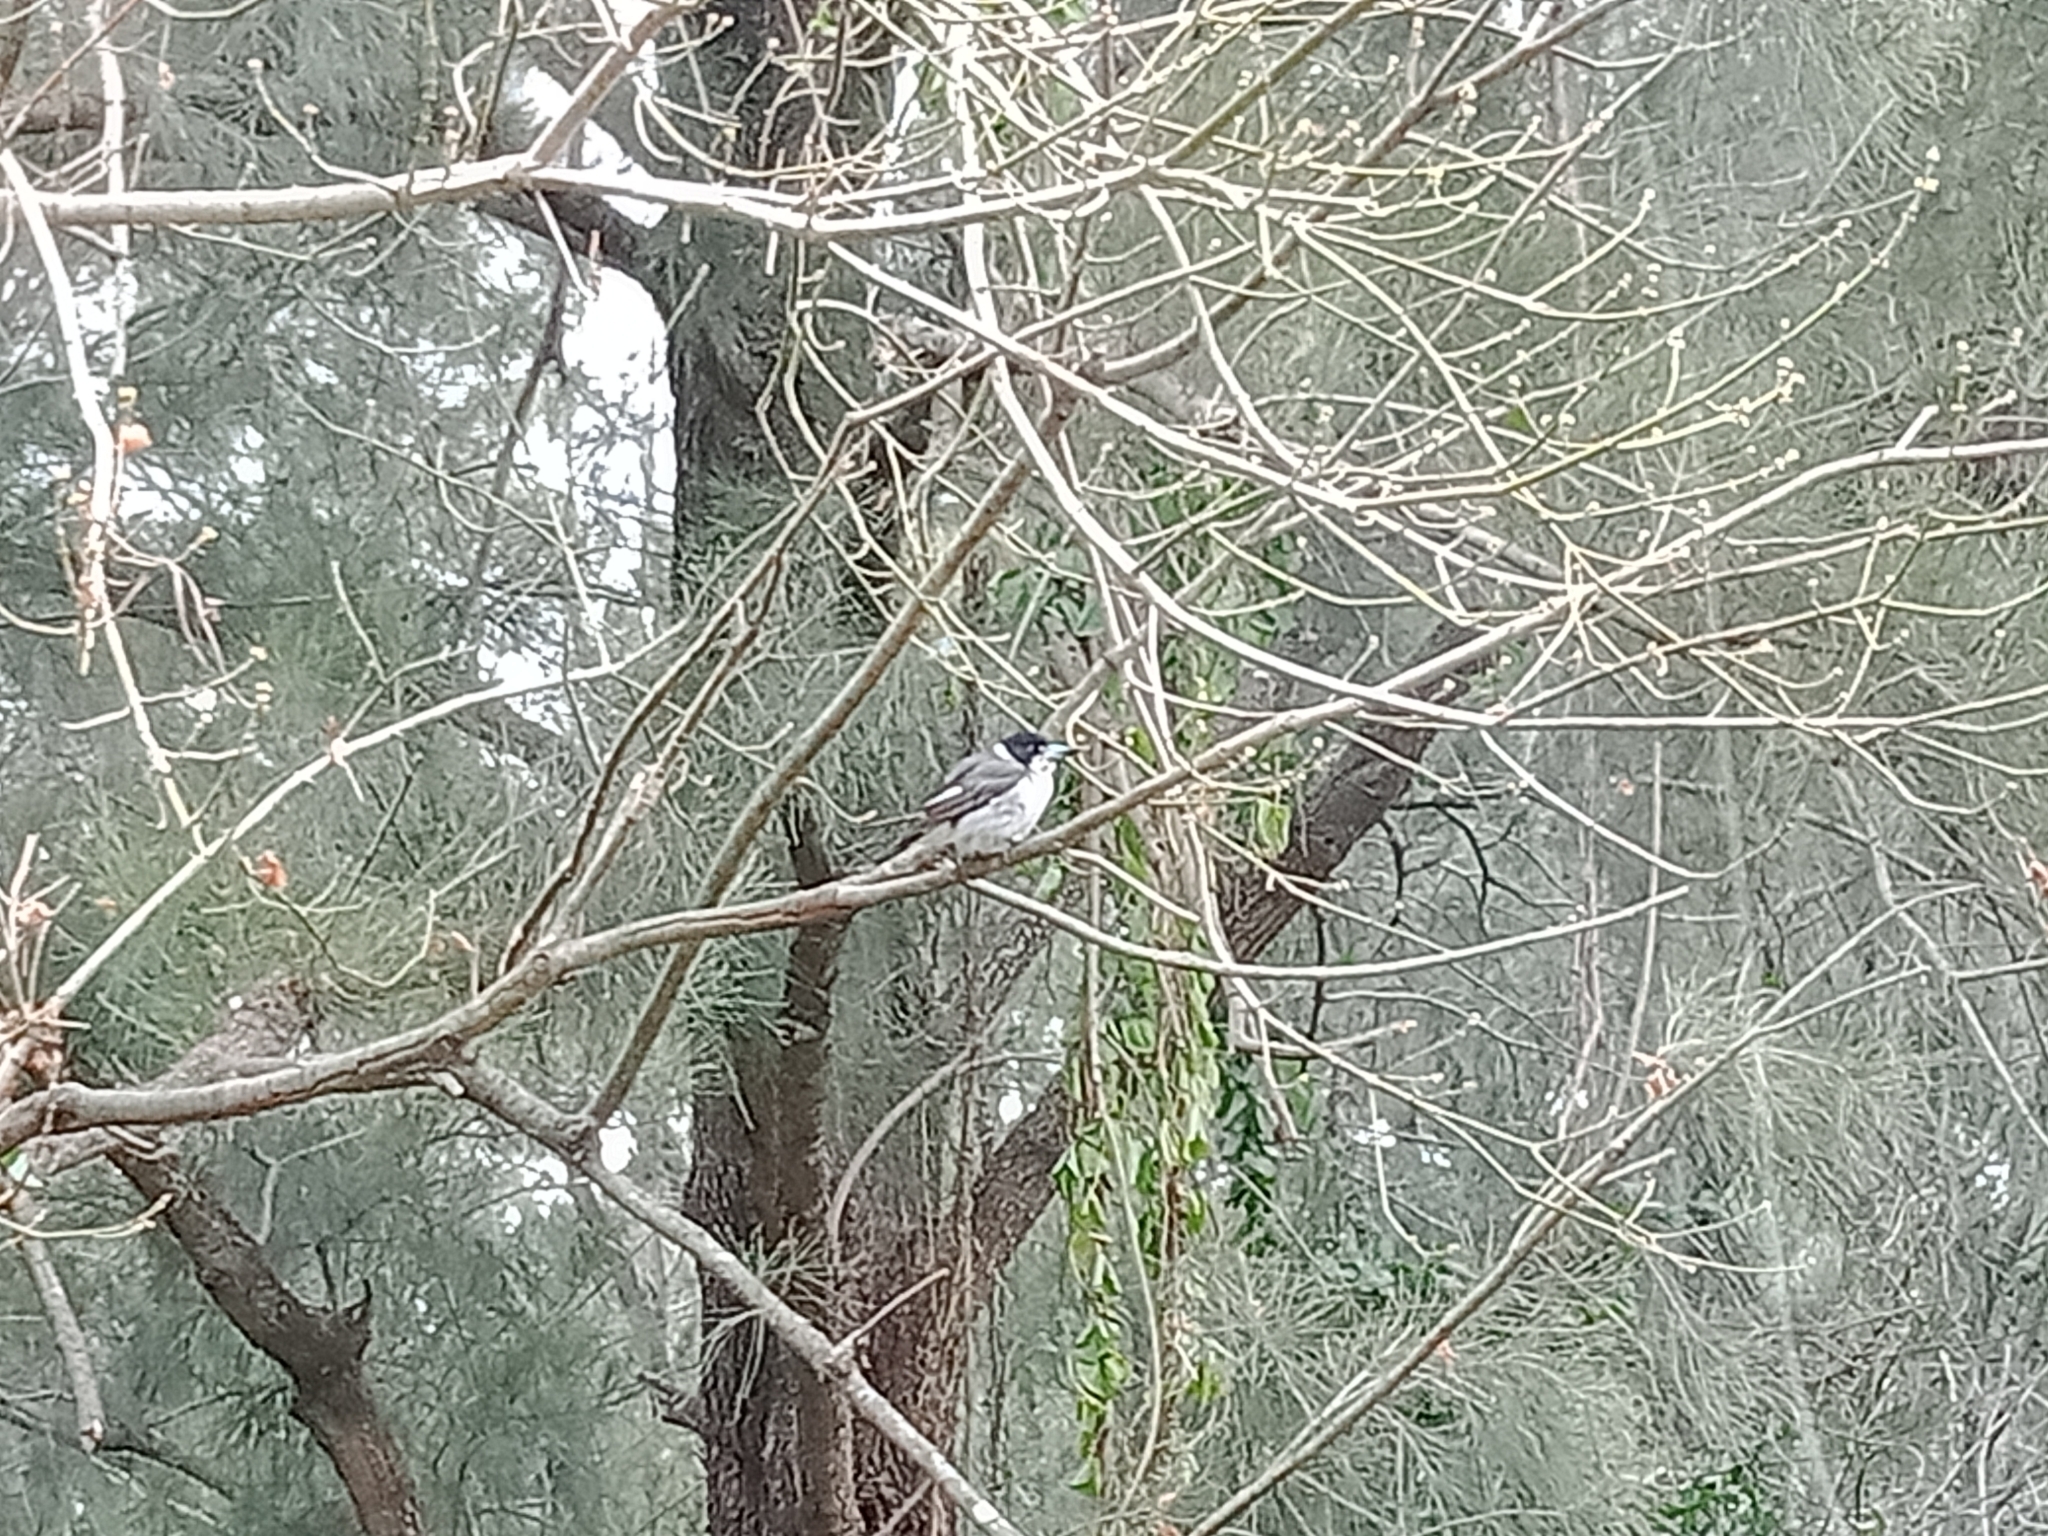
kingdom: Animalia
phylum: Chordata
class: Aves
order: Passeriformes
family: Cracticidae
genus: Cracticus
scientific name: Cracticus torquatus
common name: Grey butcherbird
